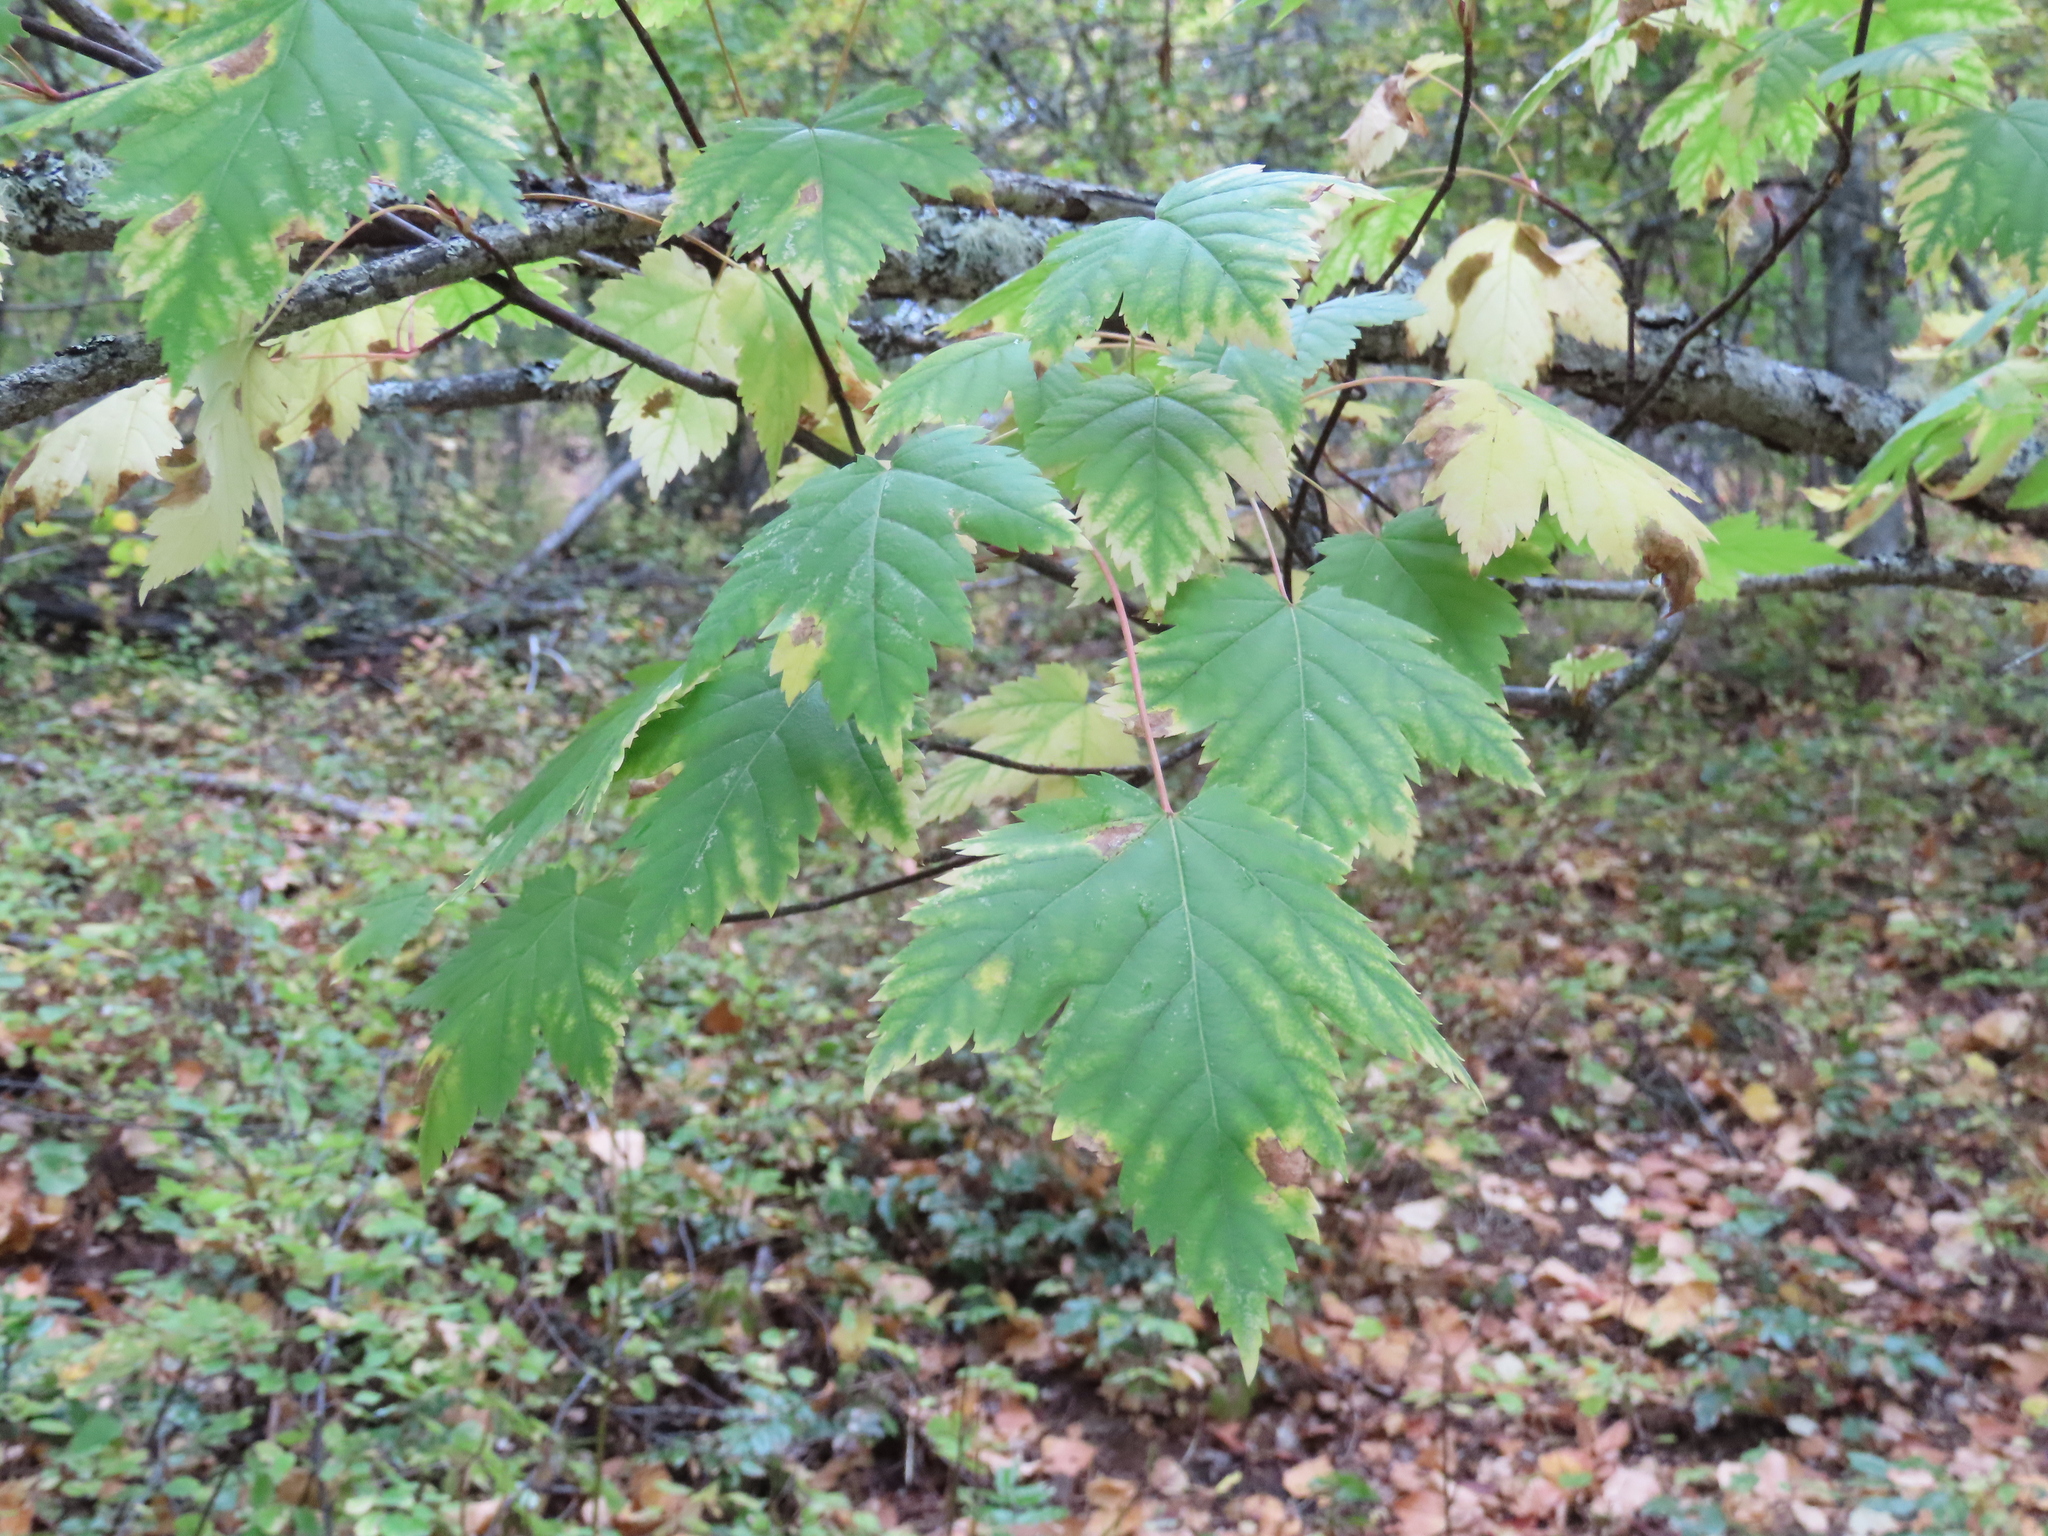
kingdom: Plantae
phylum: Tracheophyta
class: Magnoliopsida
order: Sapindales
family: Sapindaceae
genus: Acer
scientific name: Acer glabrum
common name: Rocky mountain maple
